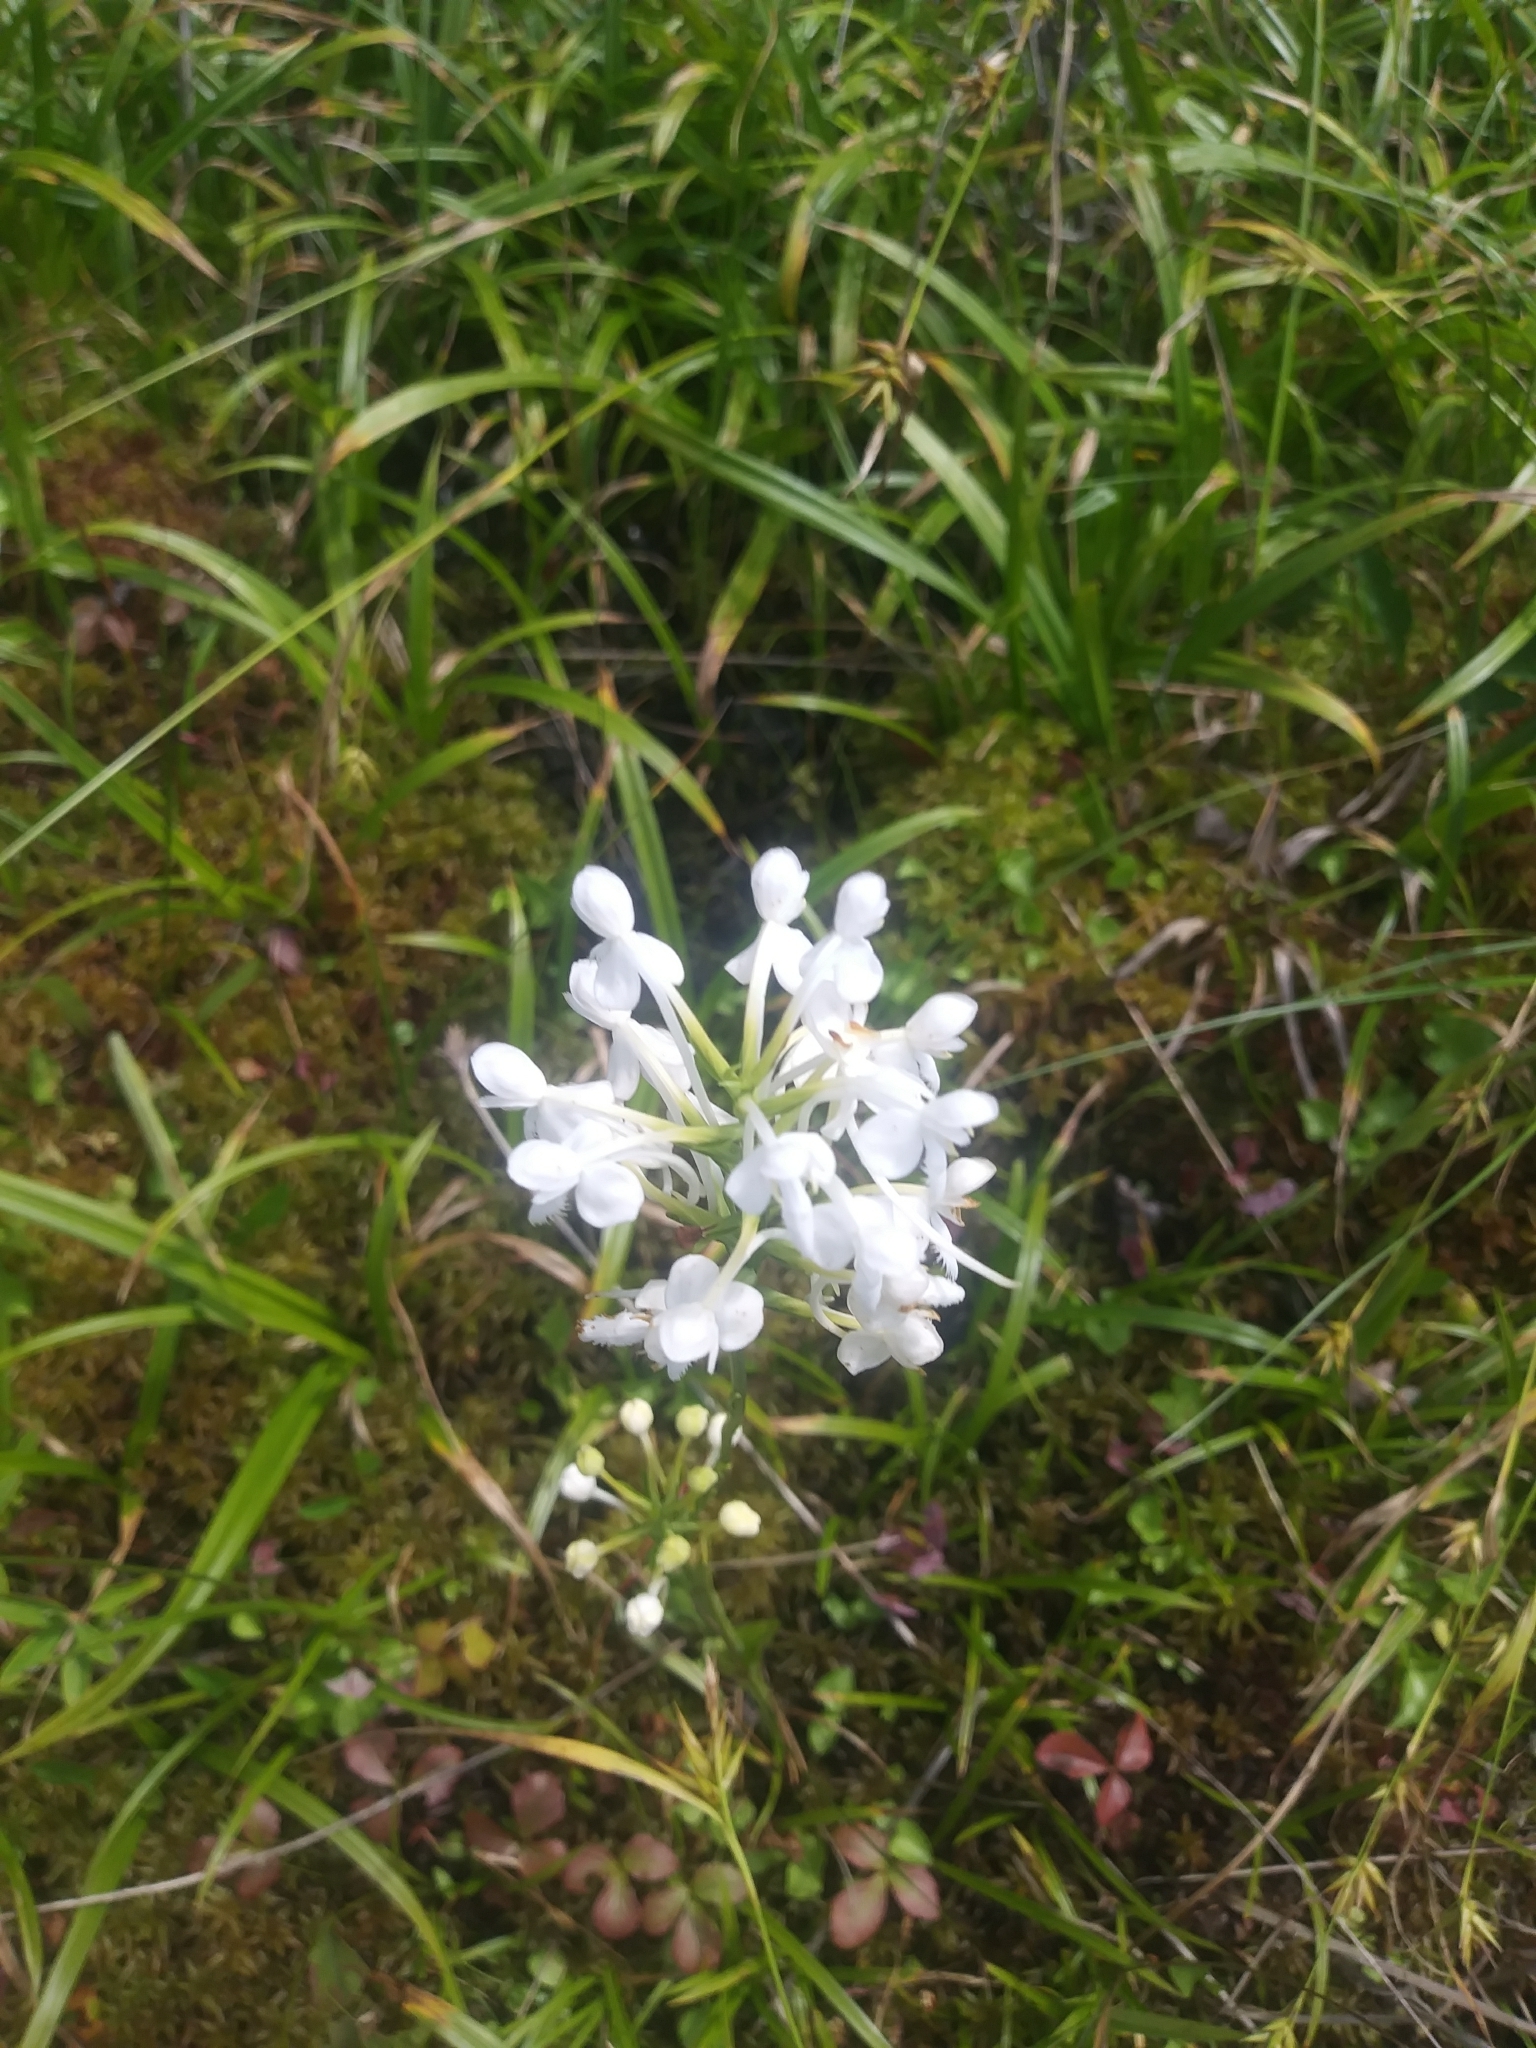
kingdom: Plantae
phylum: Tracheophyta
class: Liliopsida
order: Asparagales
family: Orchidaceae
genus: Platanthera
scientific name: Platanthera blephariglottis
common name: White fringed orchid
